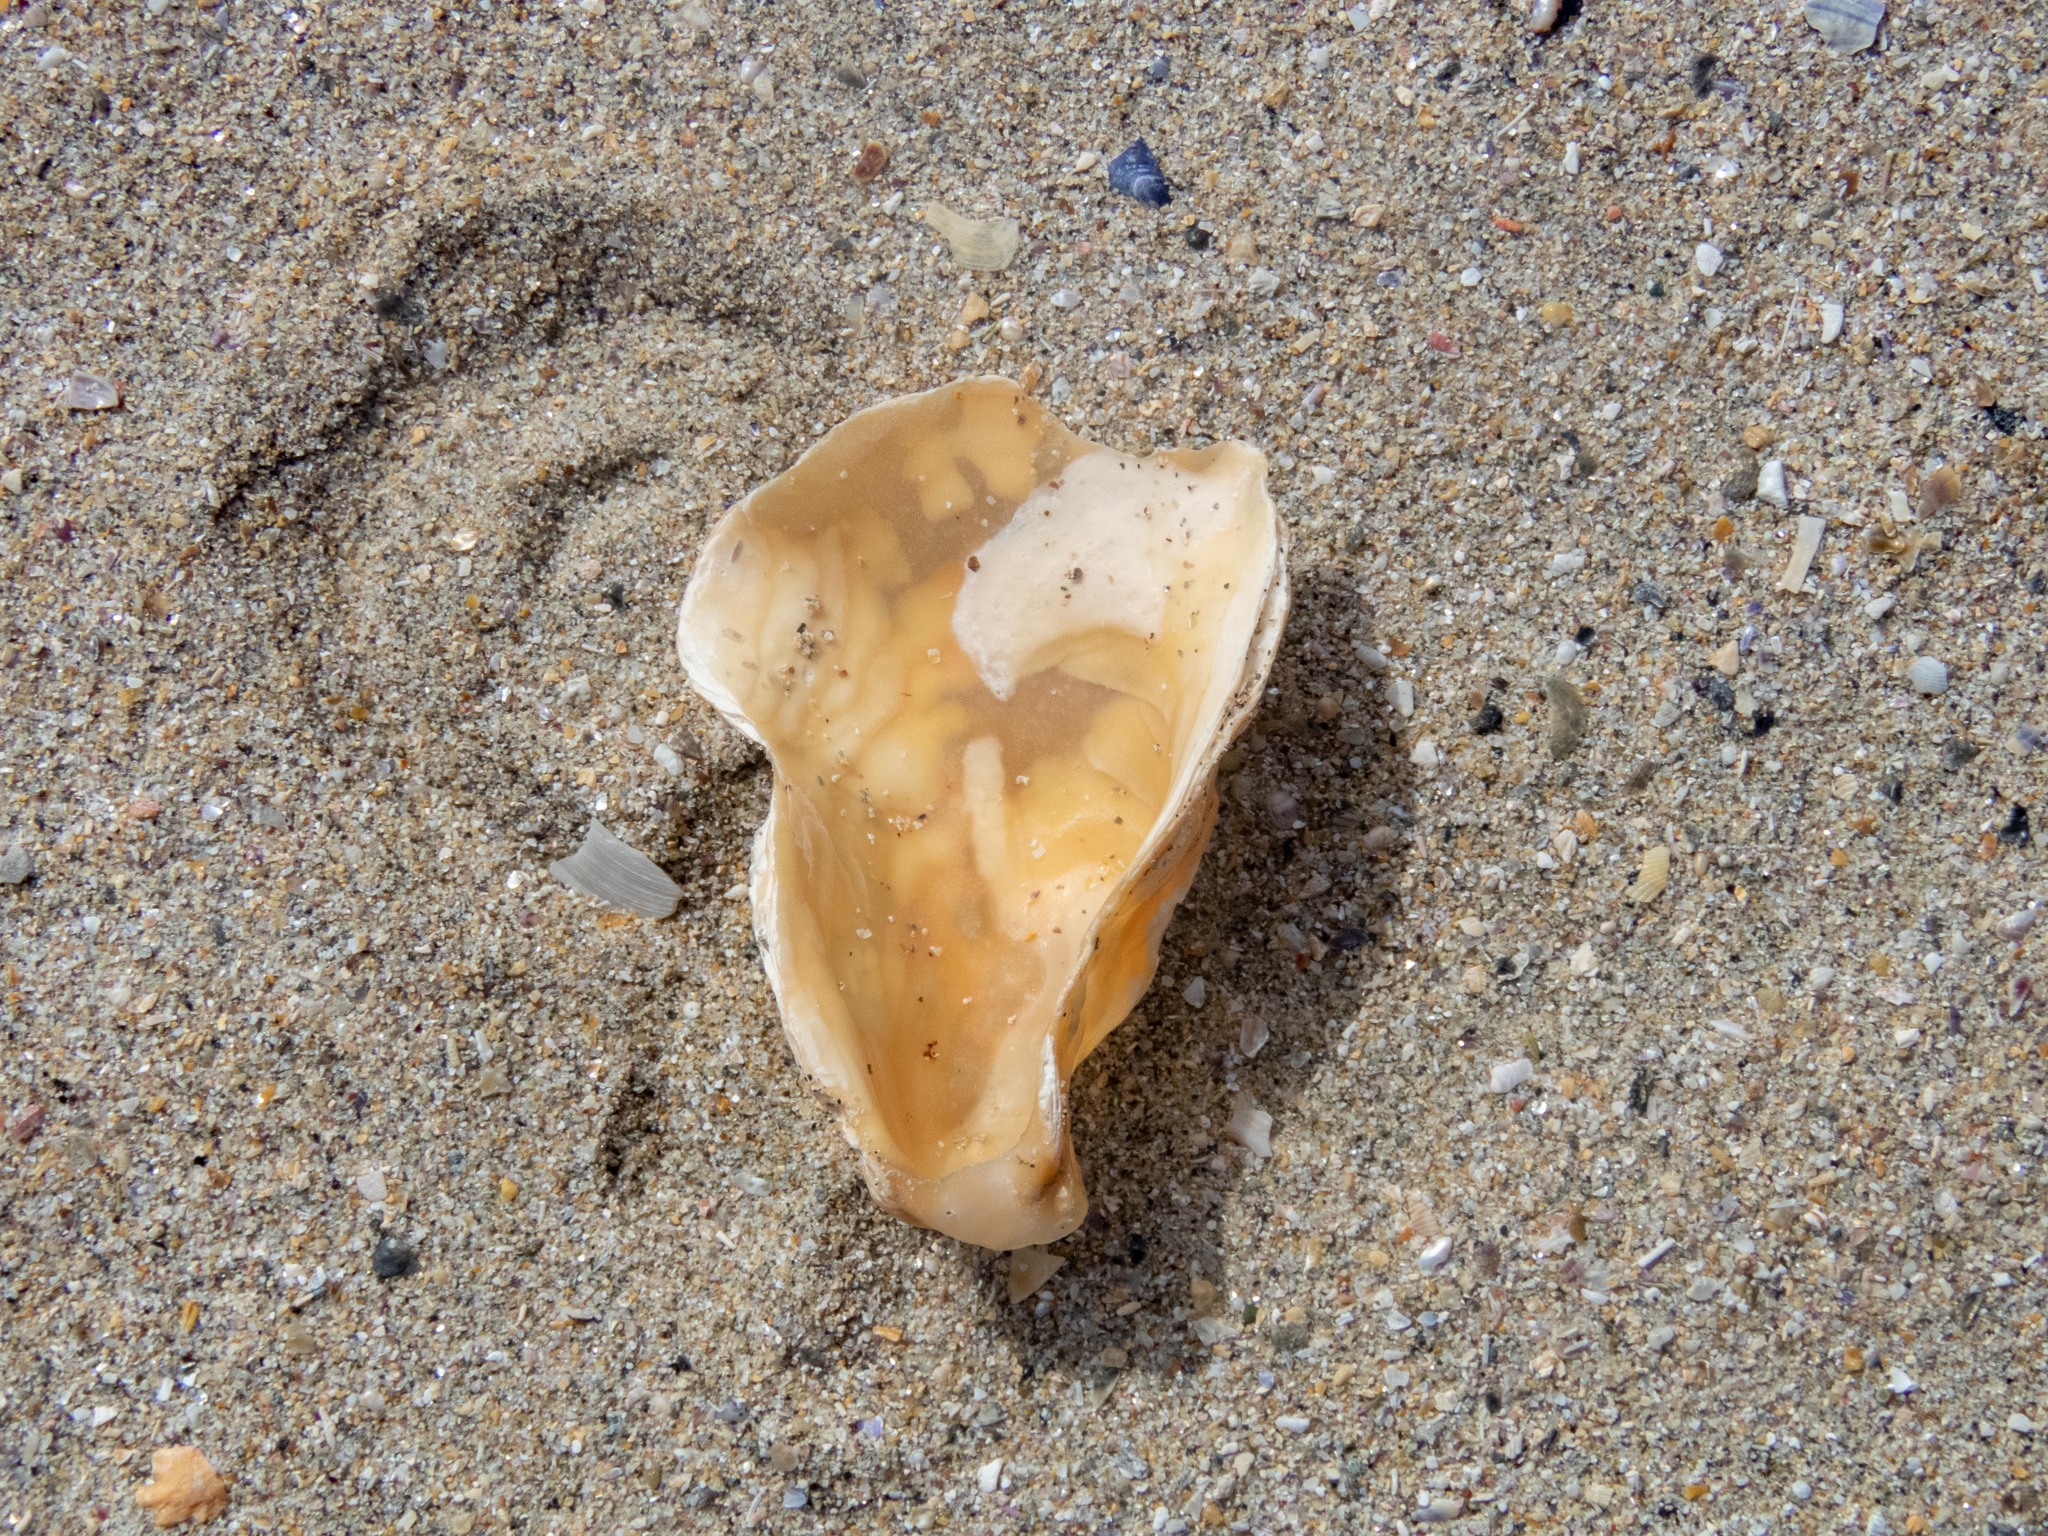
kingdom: Animalia
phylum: Mollusca
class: Bivalvia
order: Ostreida
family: Ostreidae
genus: Magallana
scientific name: Magallana gigas
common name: Pacific oyster
